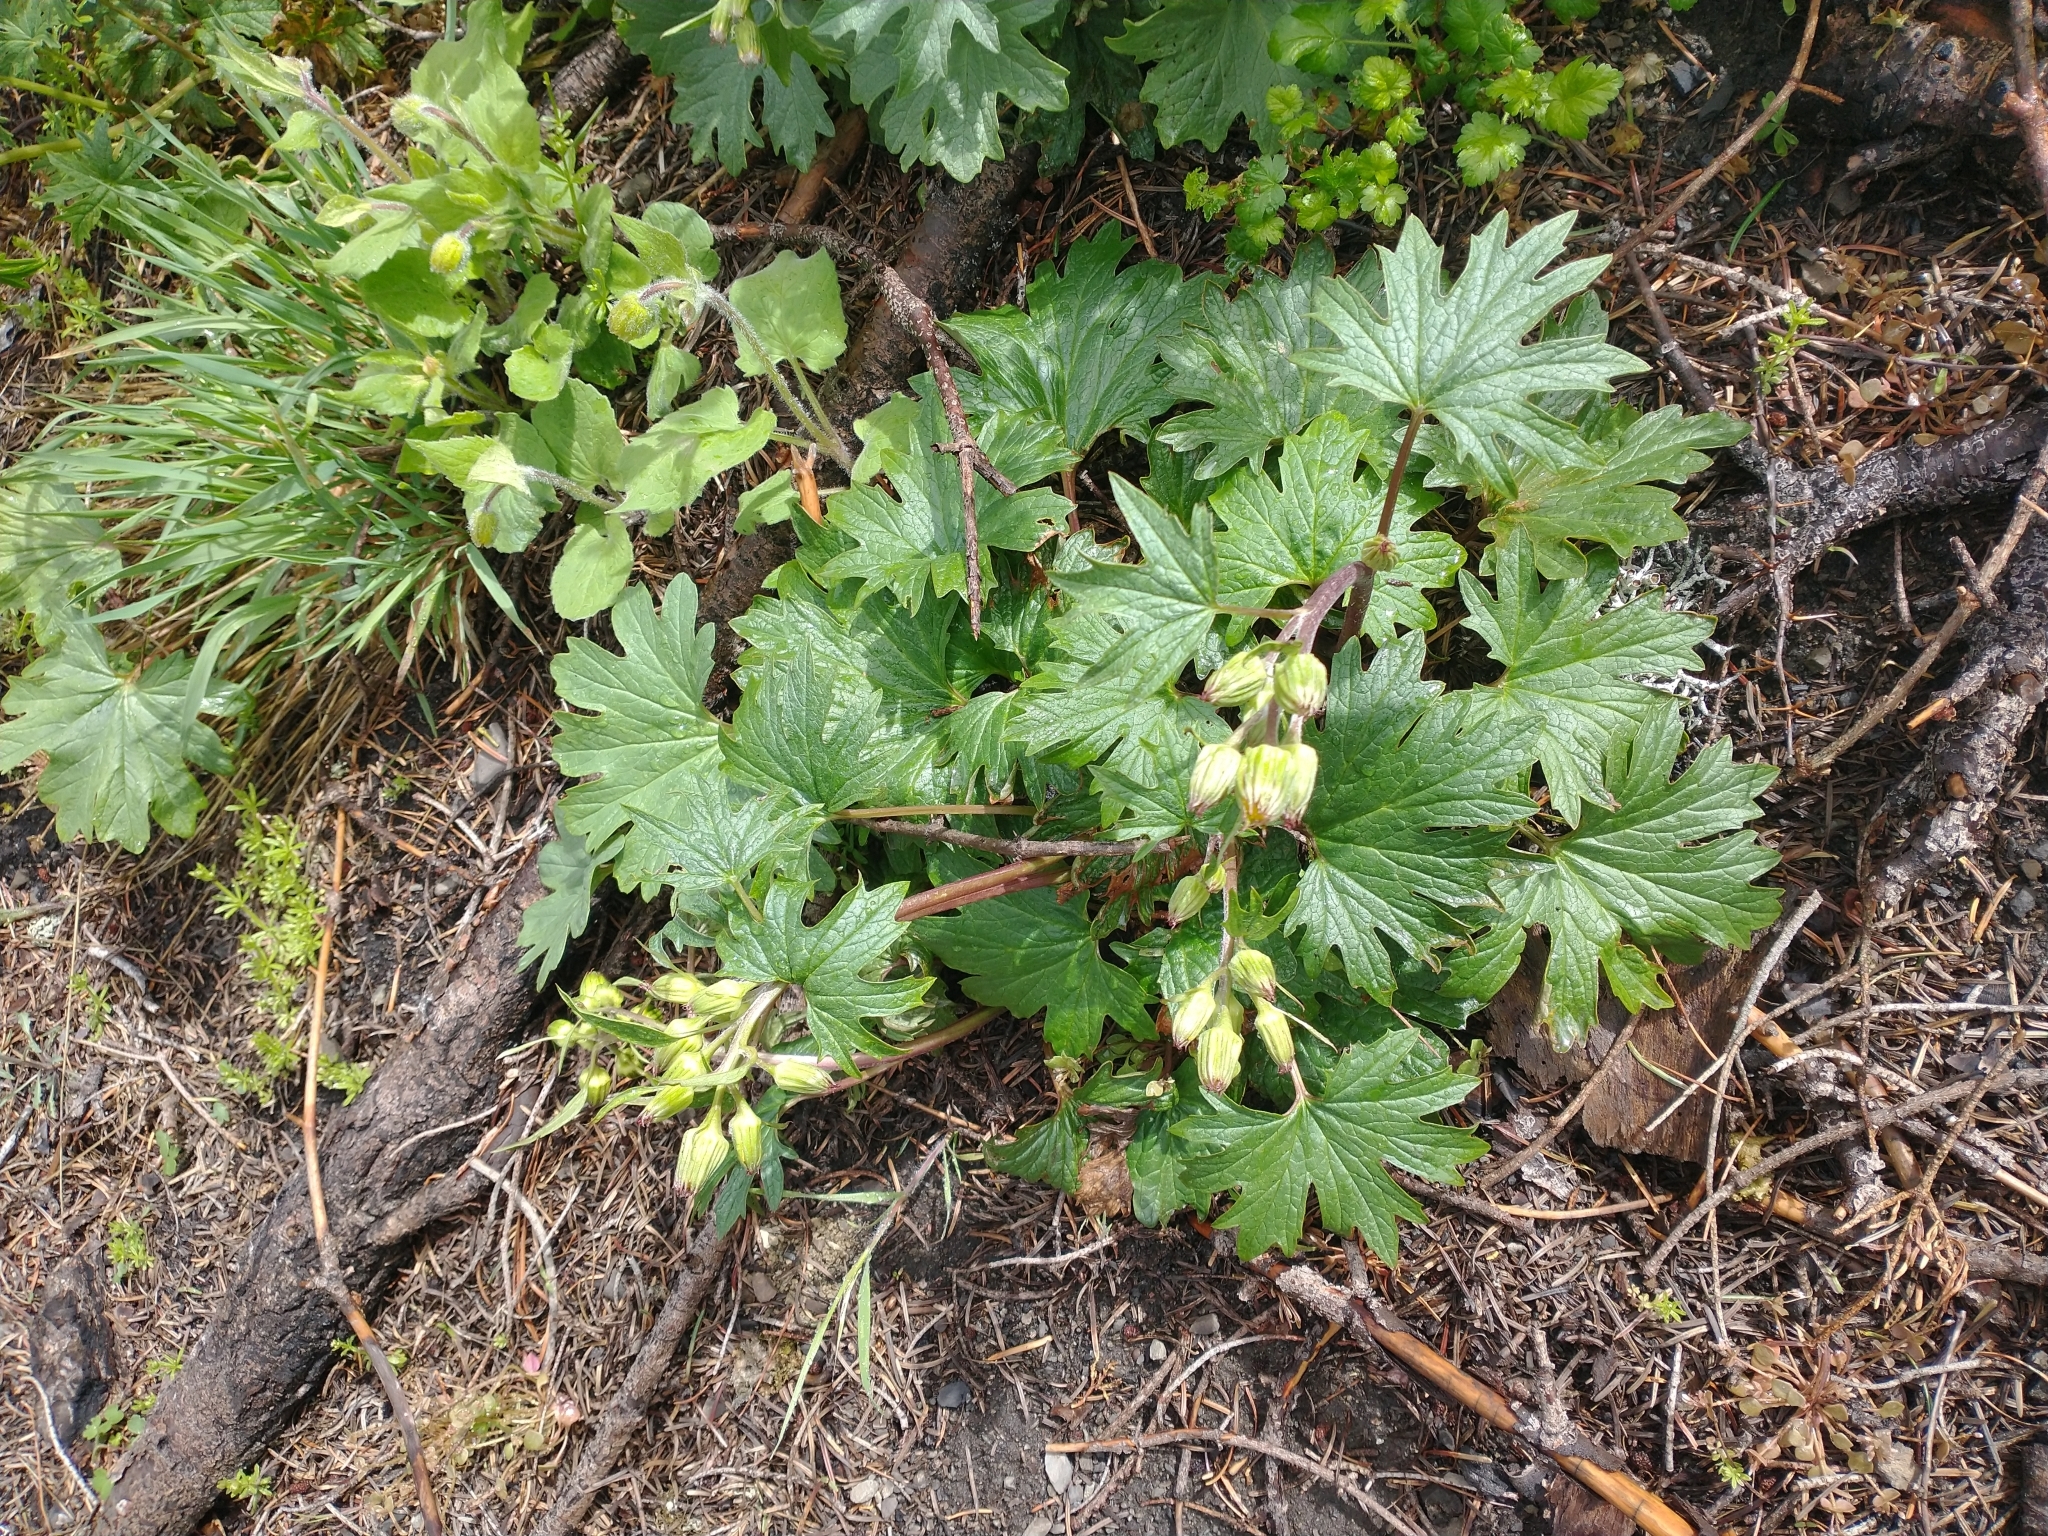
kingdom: Plantae
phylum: Tracheophyta
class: Magnoliopsida
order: Asterales
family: Asteraceae
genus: Cacaliopsis
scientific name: Cacaliopsis nardosmia
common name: Silvercrown
